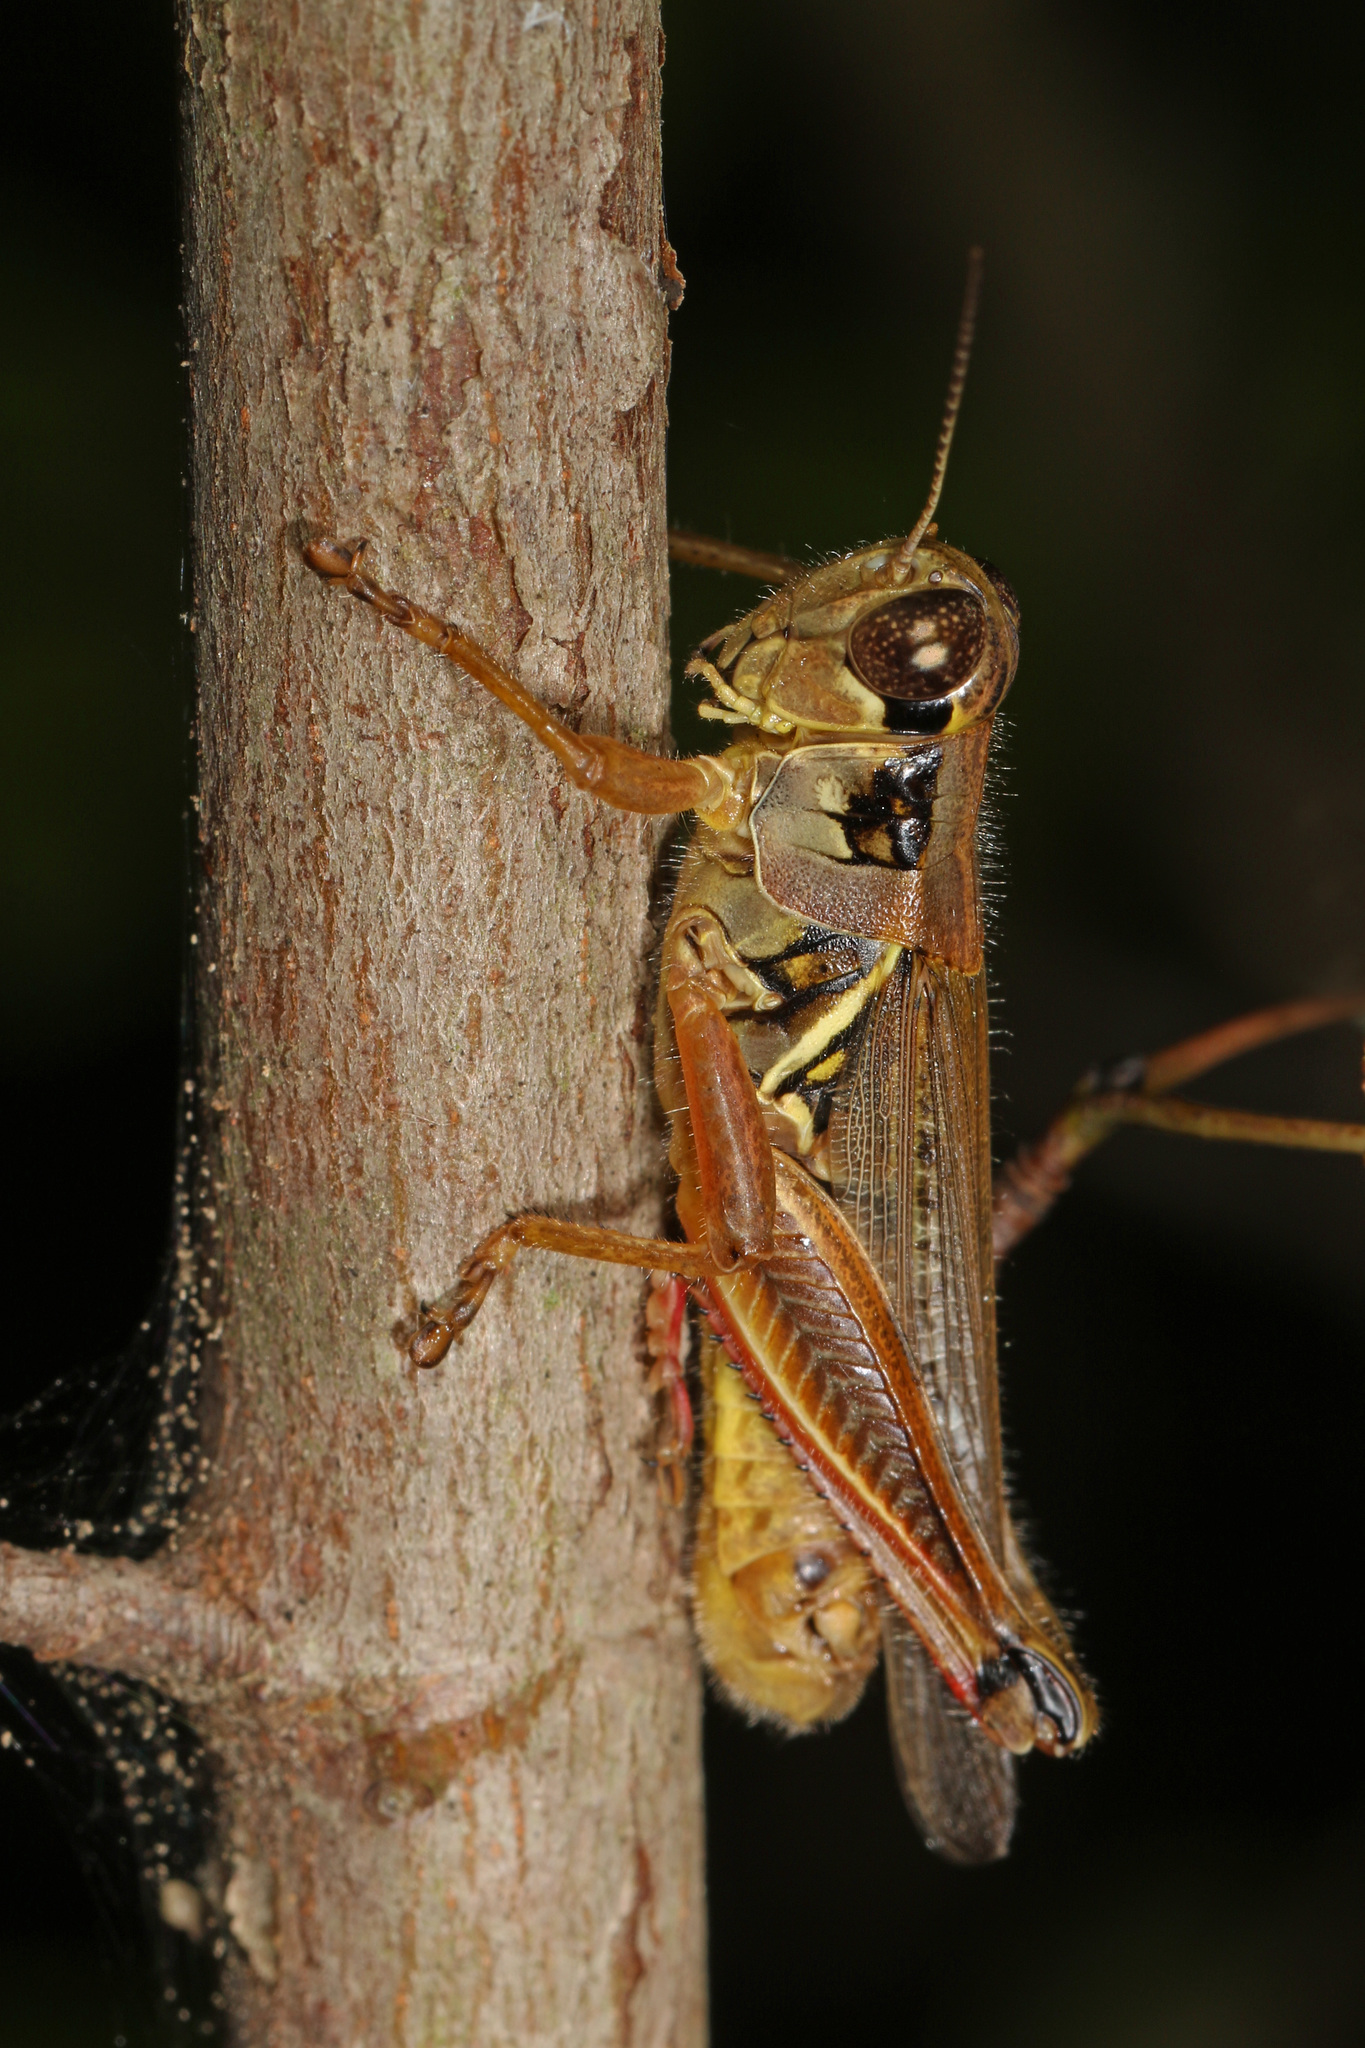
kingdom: Animalia
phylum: Arthropoda
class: Insecta
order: Orthoptera
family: Acrididae
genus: Melanoplus
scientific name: Melanoplus femurrubrum
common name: Red-legged grasshopper
